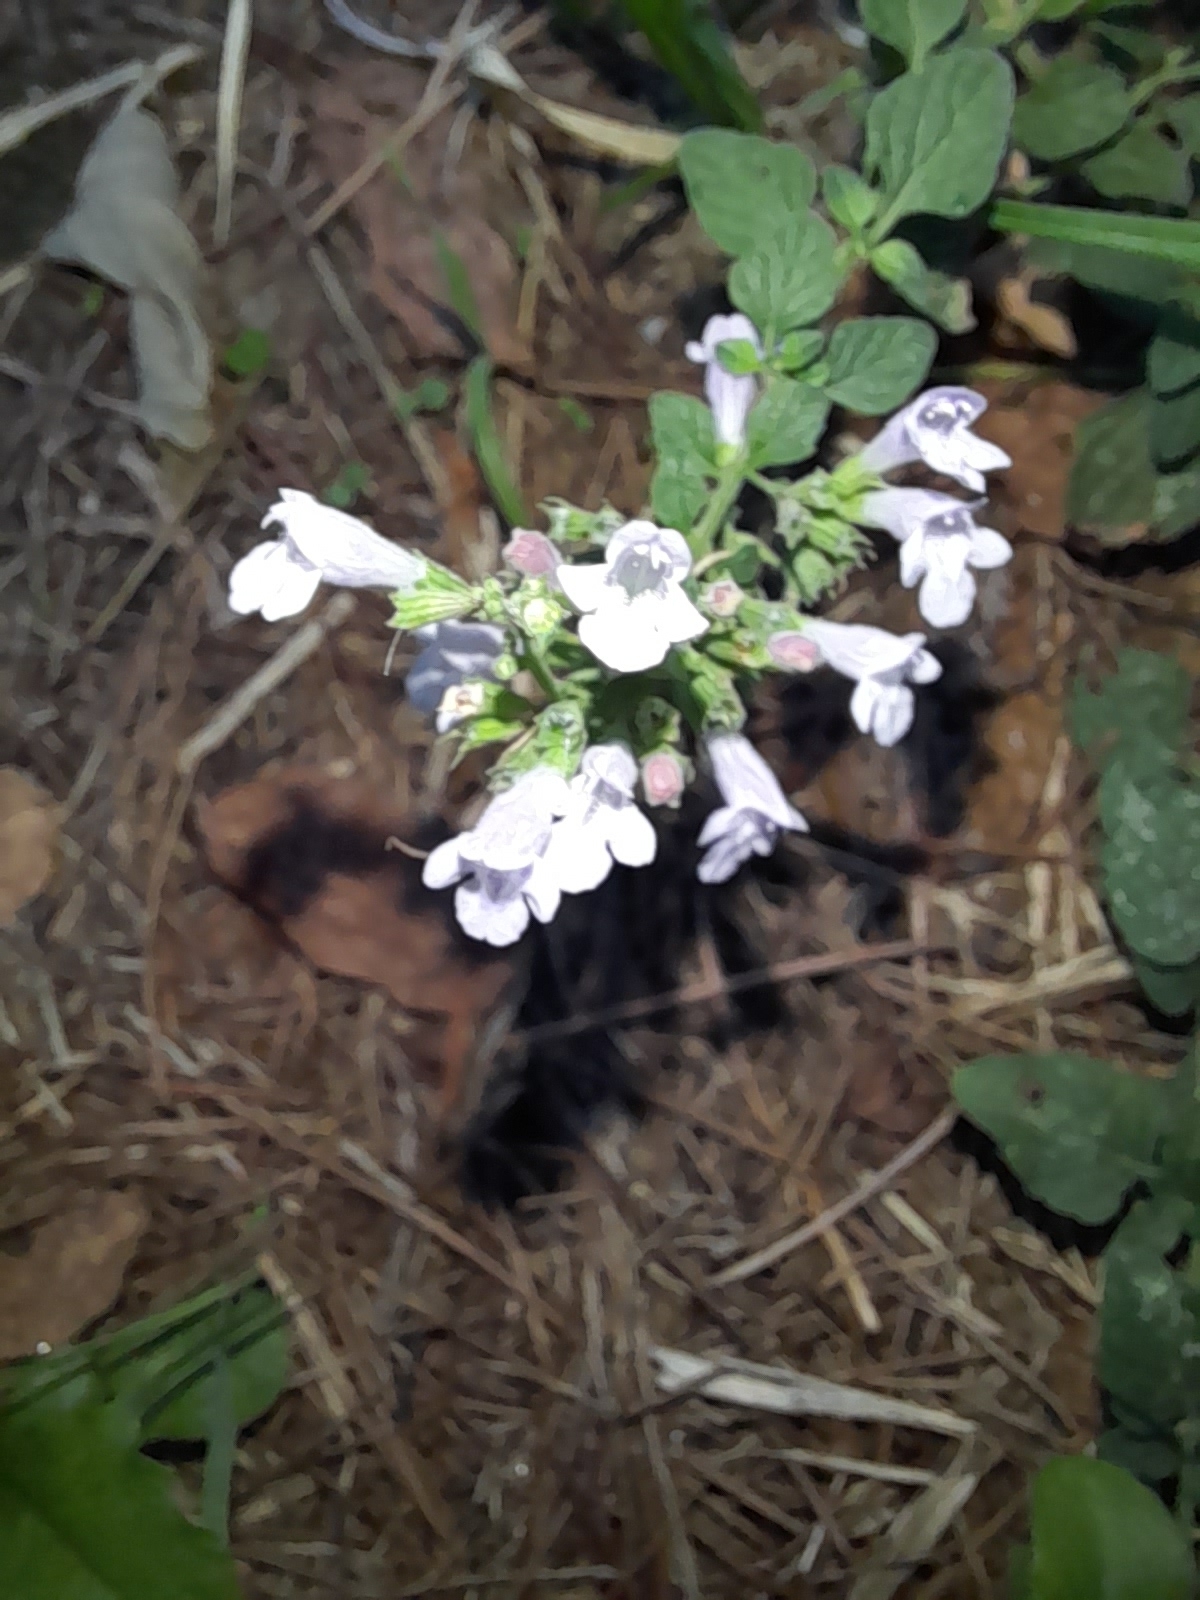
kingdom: Plantae
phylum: Tracheophyta
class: Magnoliopsida
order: Lamiales
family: Lamiaceae
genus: Clinopodium
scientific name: Clinopodium nepeta
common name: Lesser calamint
